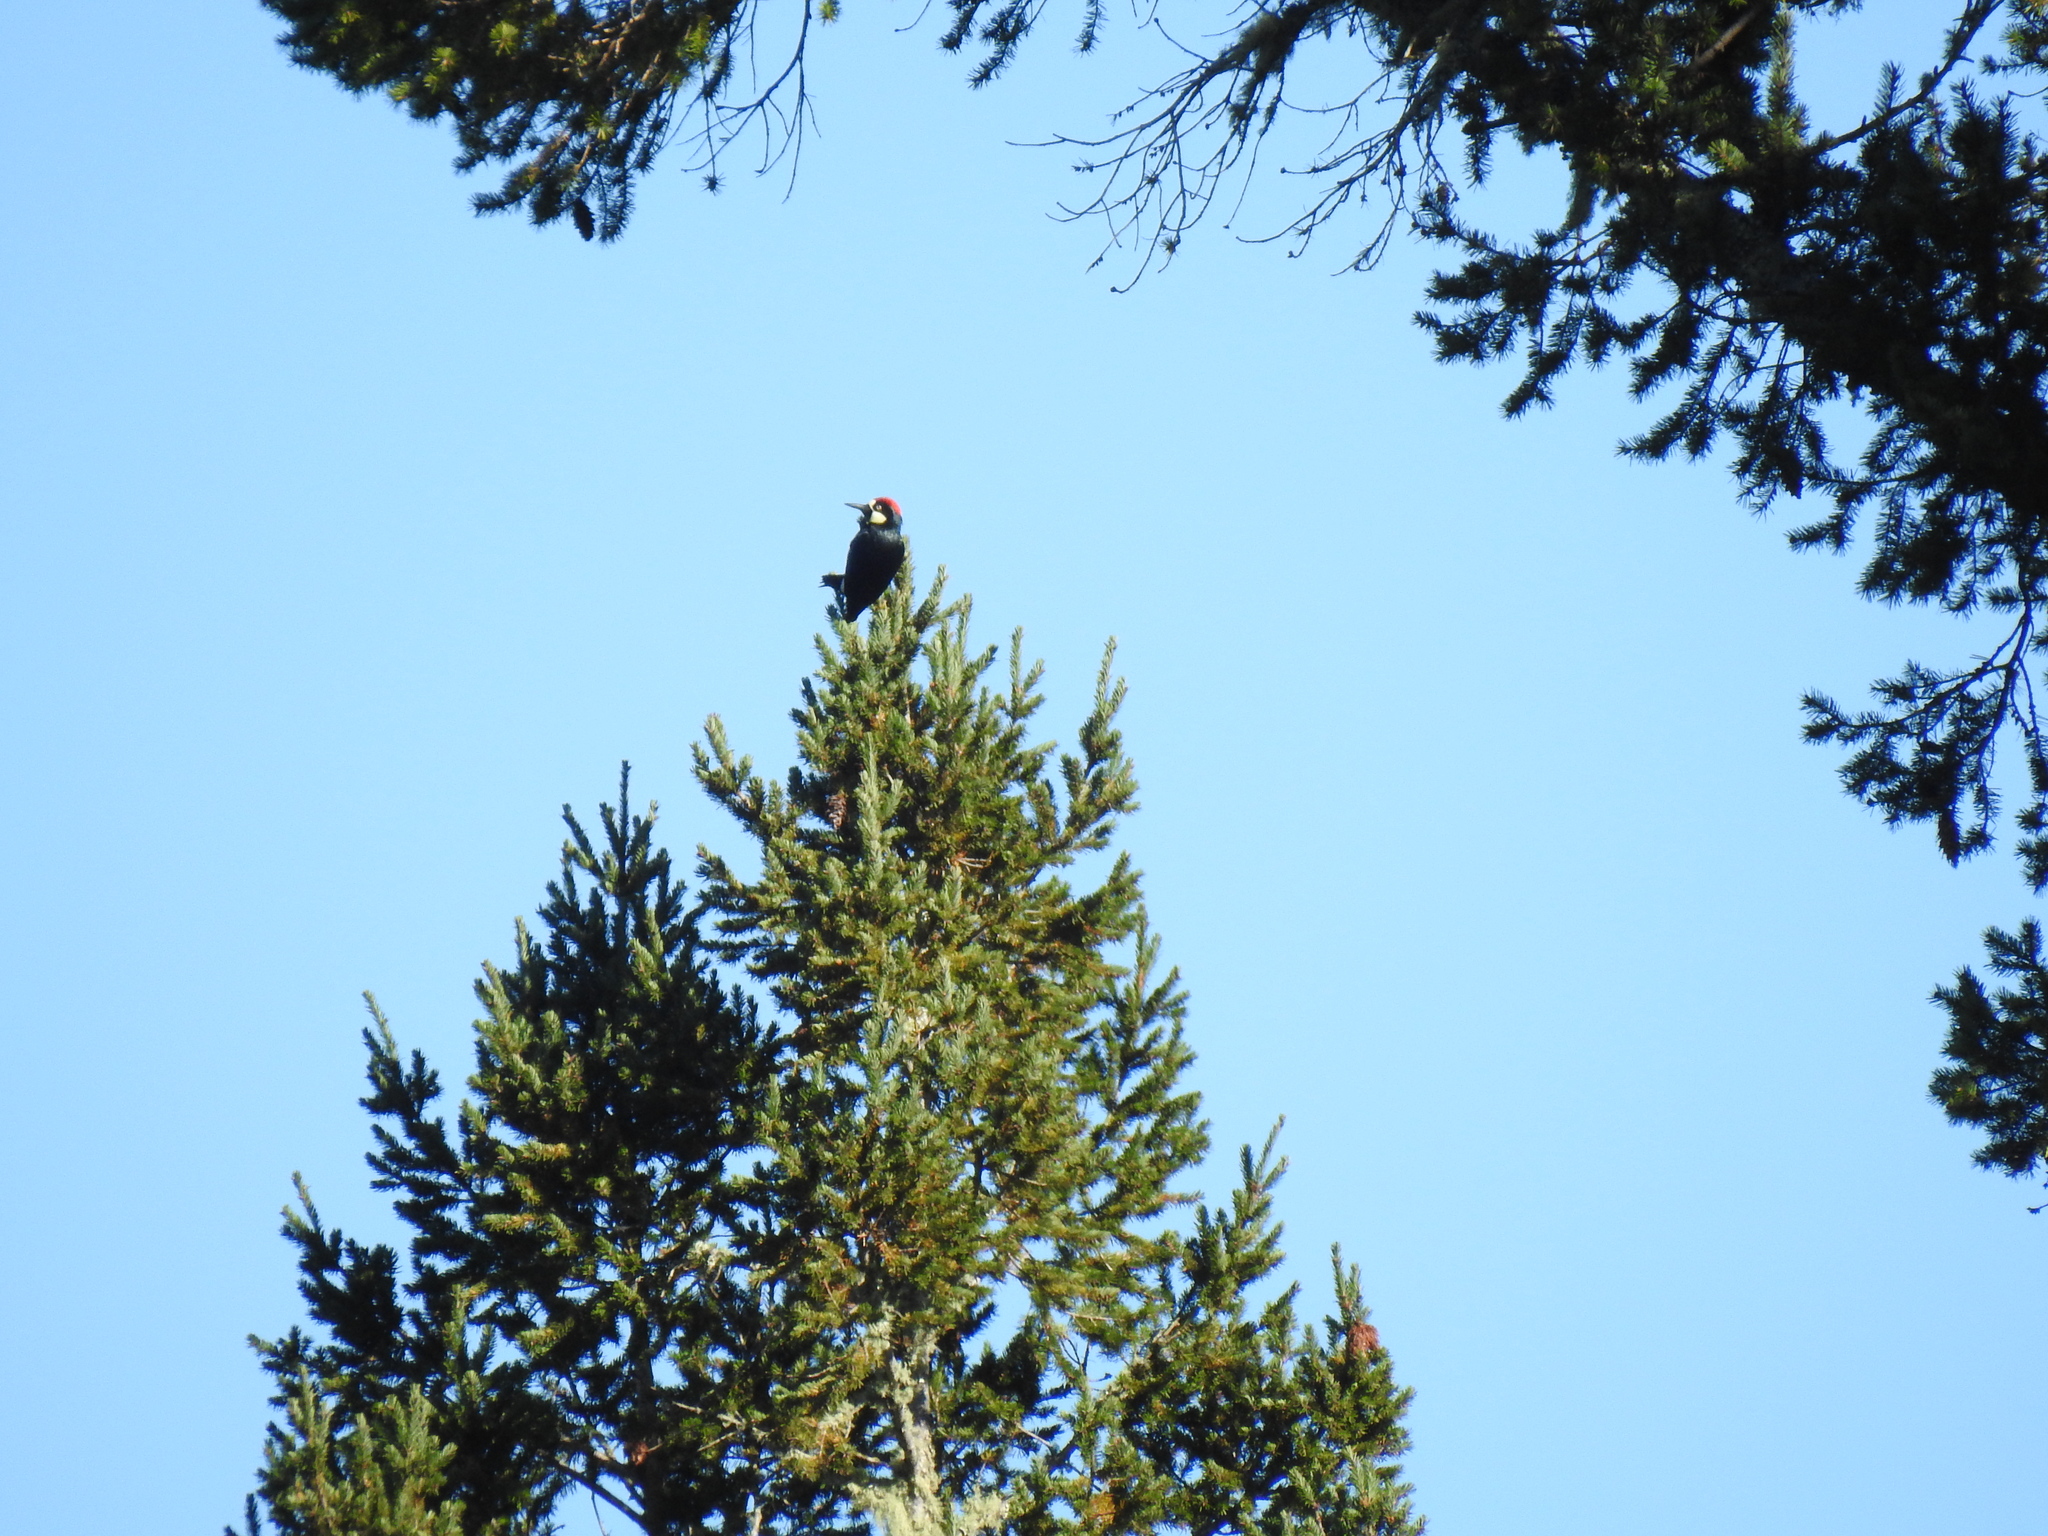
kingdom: Animalia
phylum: Chordata
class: Aves
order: Piciformes
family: Picidae
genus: Melanerpes
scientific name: Melanerpes formicivorus
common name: Acorn woodpecker
